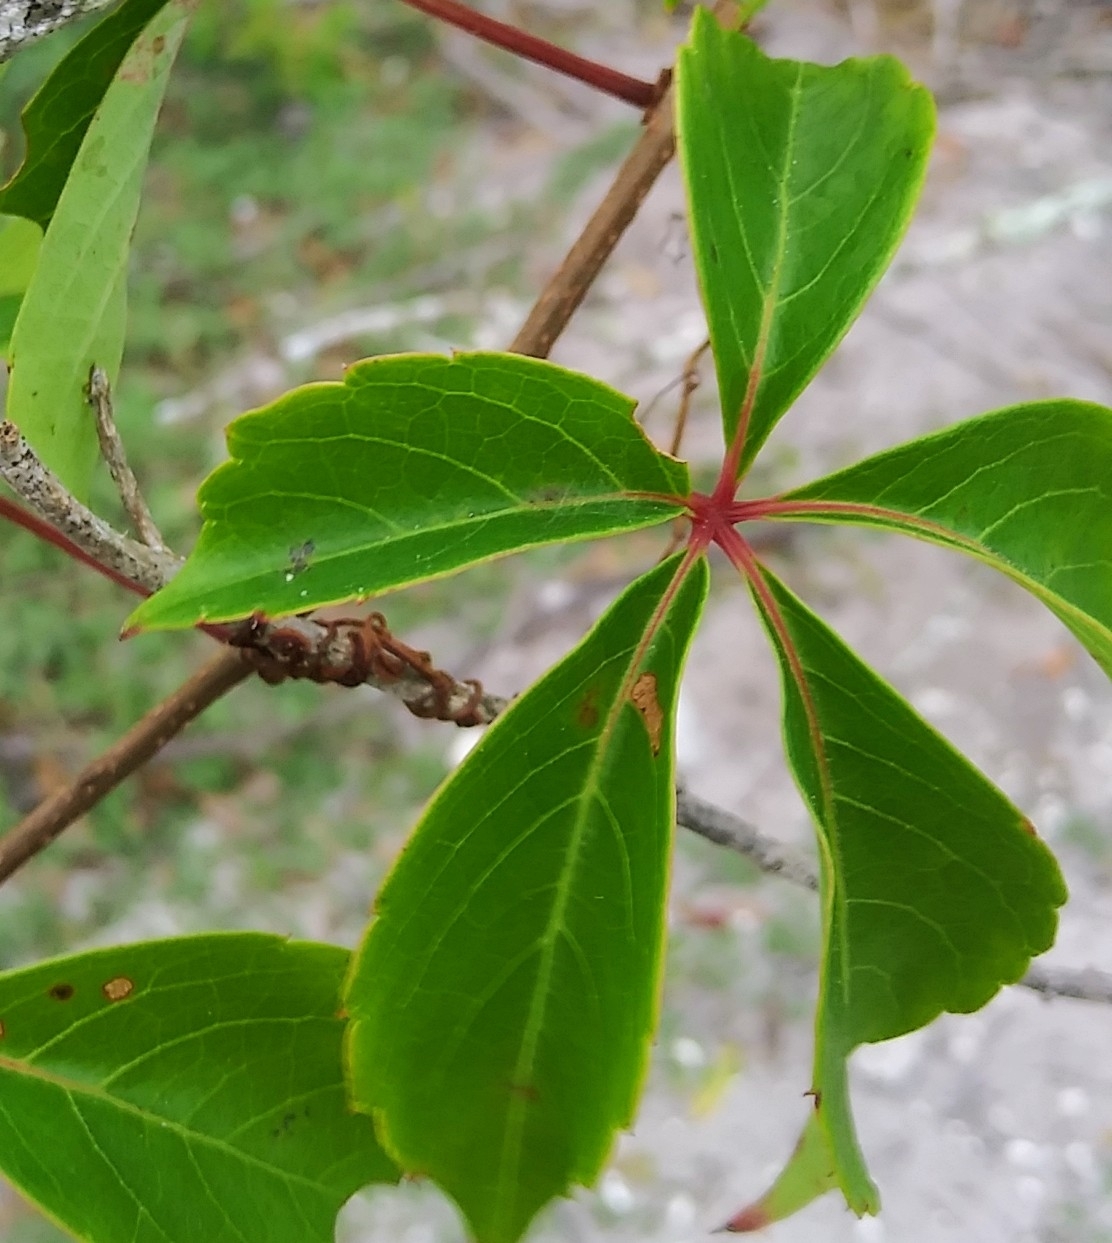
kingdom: Plantae
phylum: Tracheophyta
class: Magnoliopsida
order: Vitales
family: Vitaceae
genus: Parthenocissus
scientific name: Parthenocissus quinquefolia
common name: Virginia-creeper
